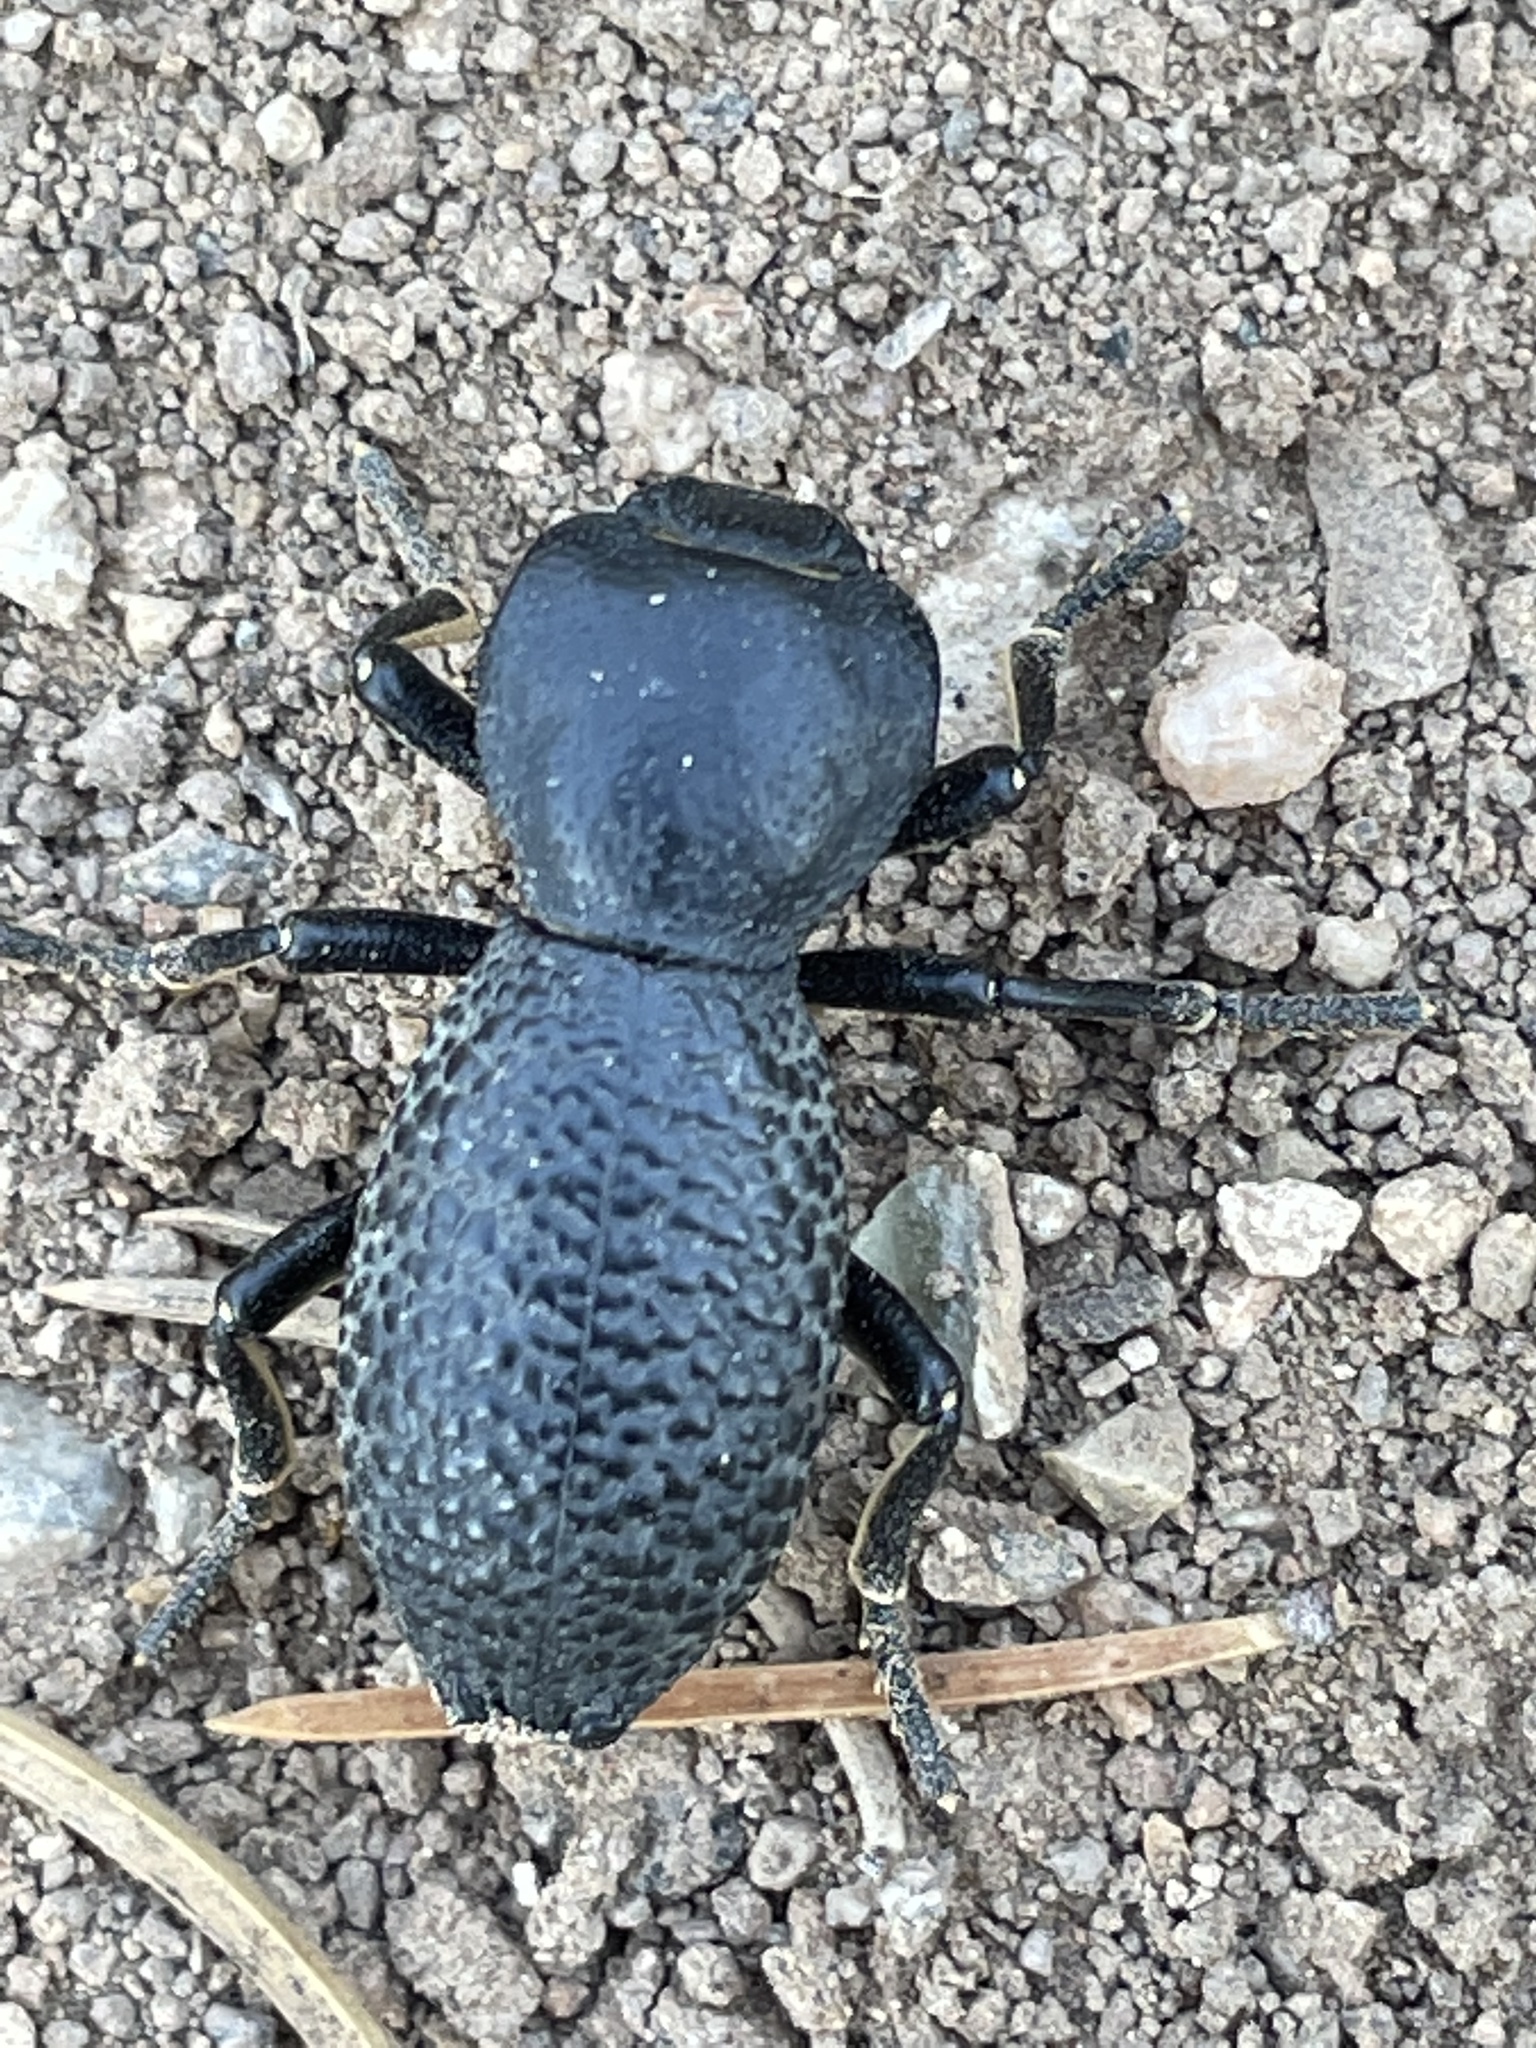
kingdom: Animalia
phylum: Arthropoda
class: Insecta
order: Coleoptera
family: Zopheridae
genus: Zopherus
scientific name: Zopherus concolor
